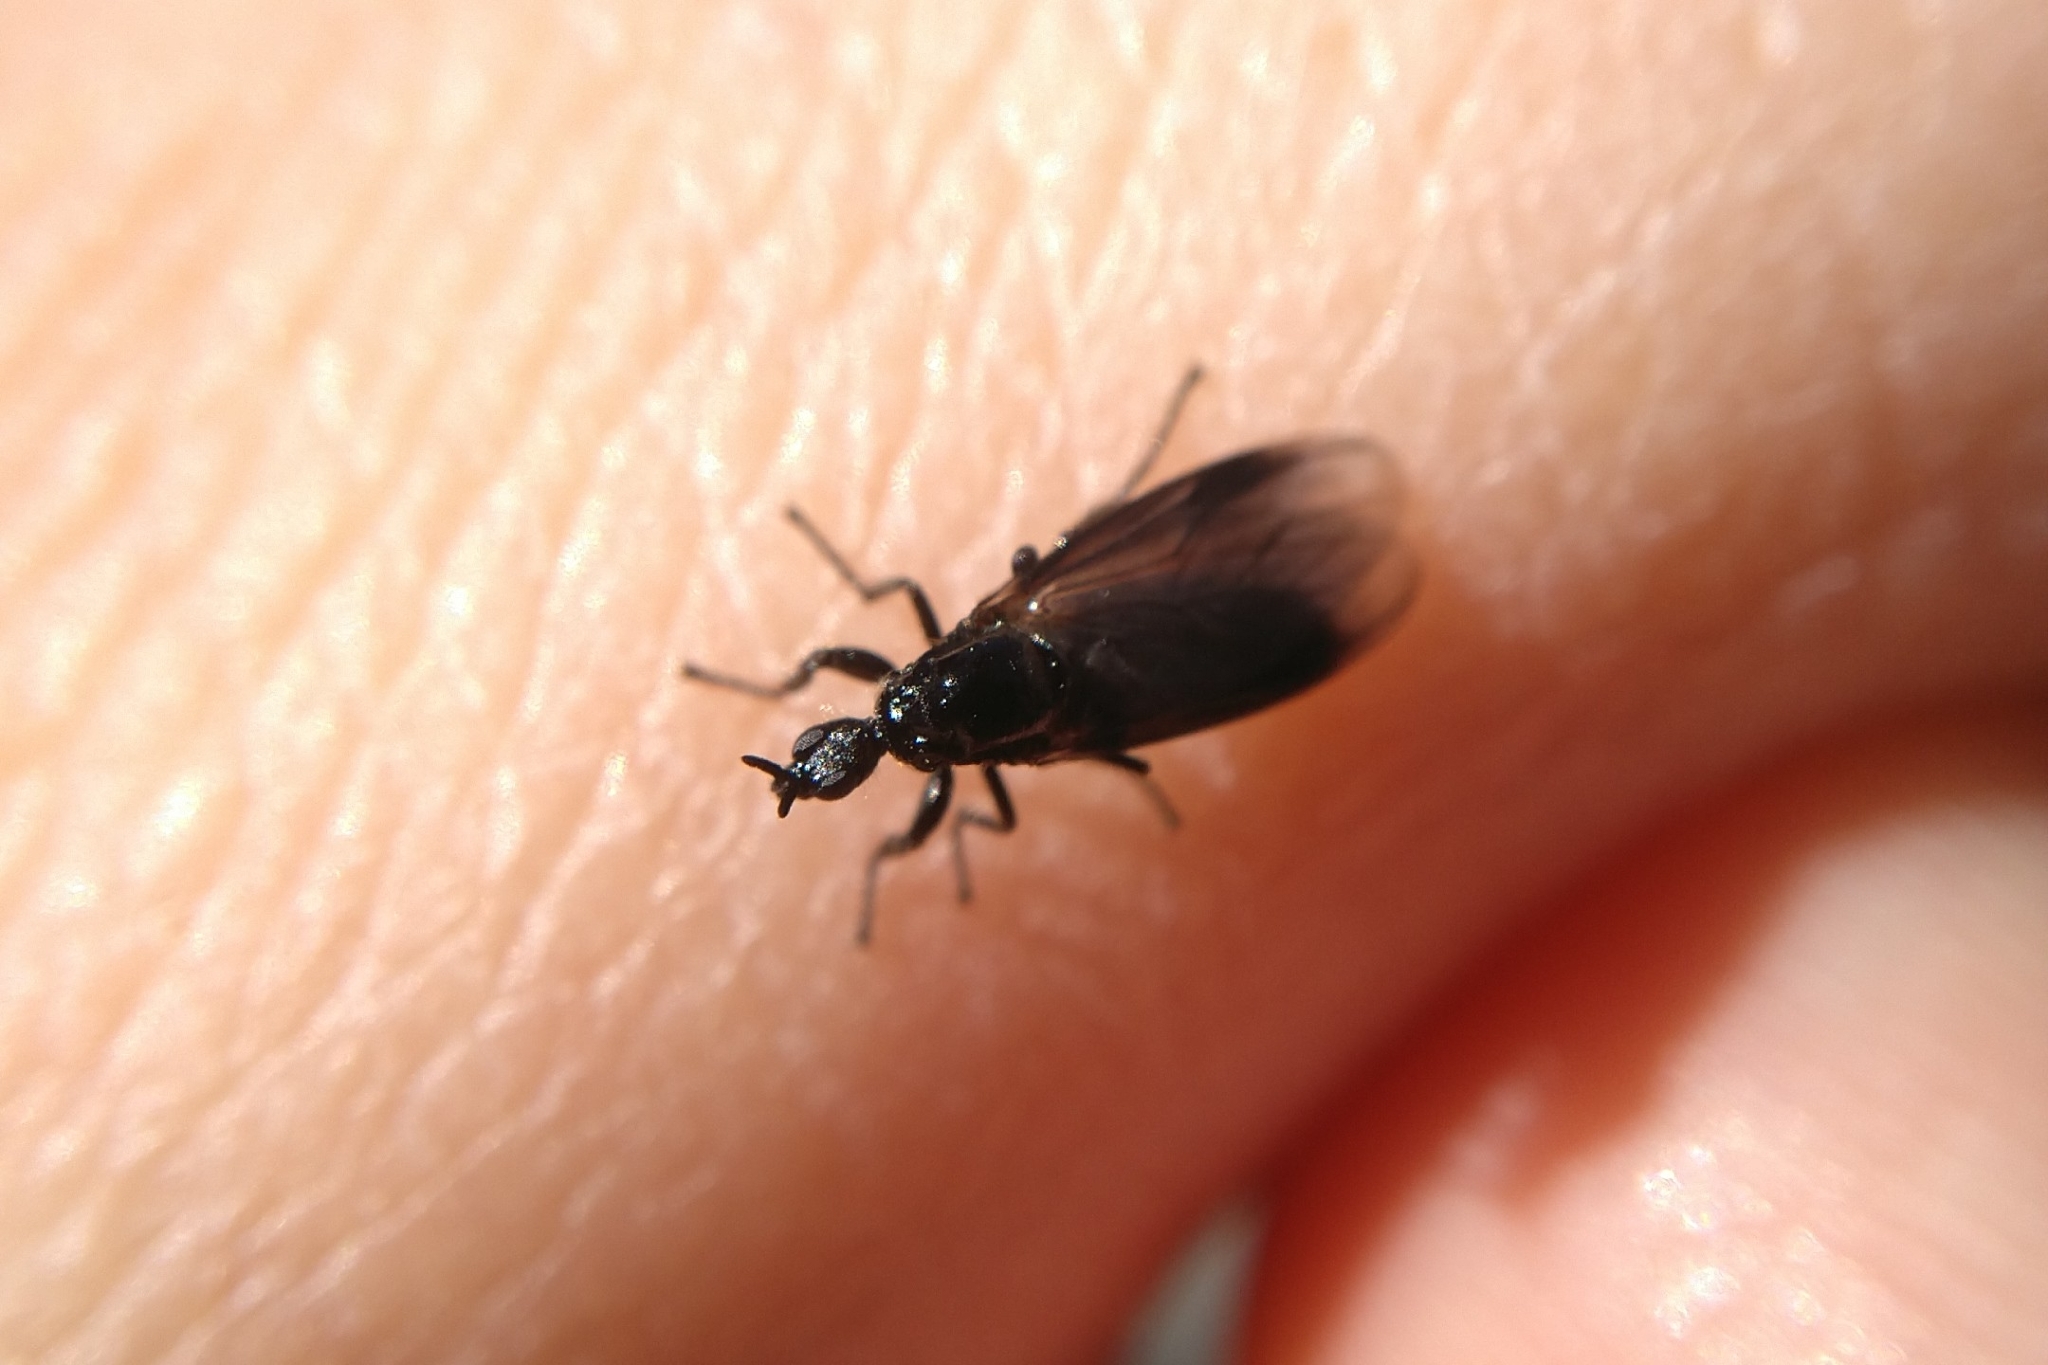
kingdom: Animalia
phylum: Arthropoda
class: Insecta
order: Diptera
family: Bibionidae
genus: Dilophus
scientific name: Dilophus febrilis
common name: Fever fly
